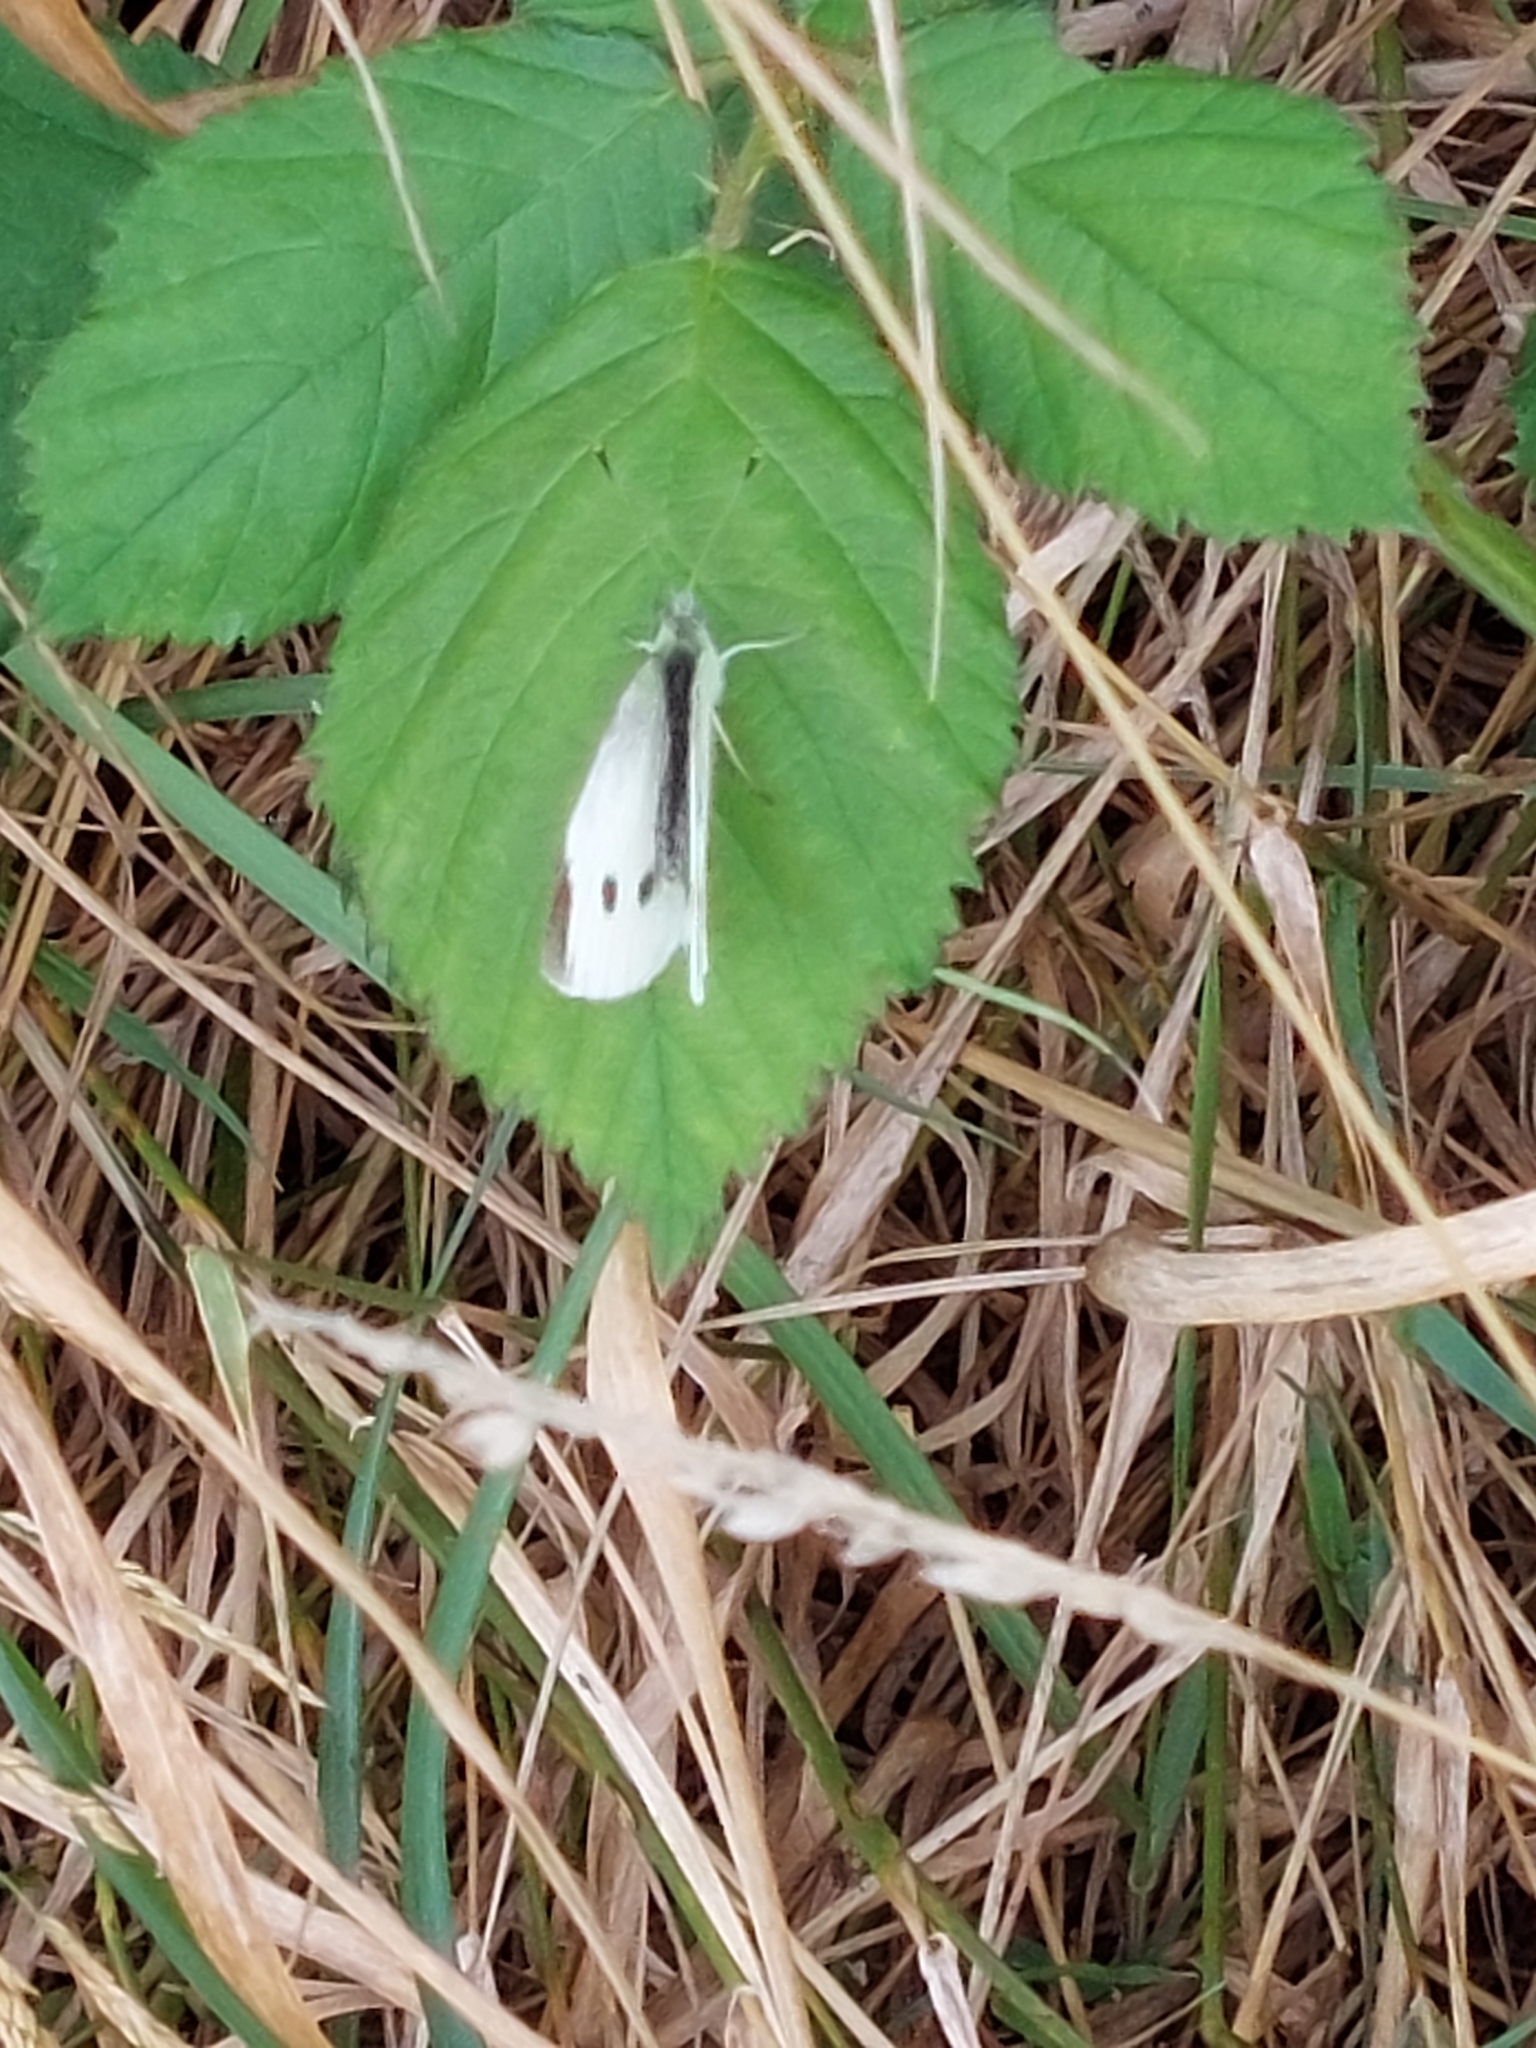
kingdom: Animalia
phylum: Arthropoda
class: Insecta
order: Lepidoptera
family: Pieridae
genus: Pieris
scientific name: Pieris rapae
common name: Small white
